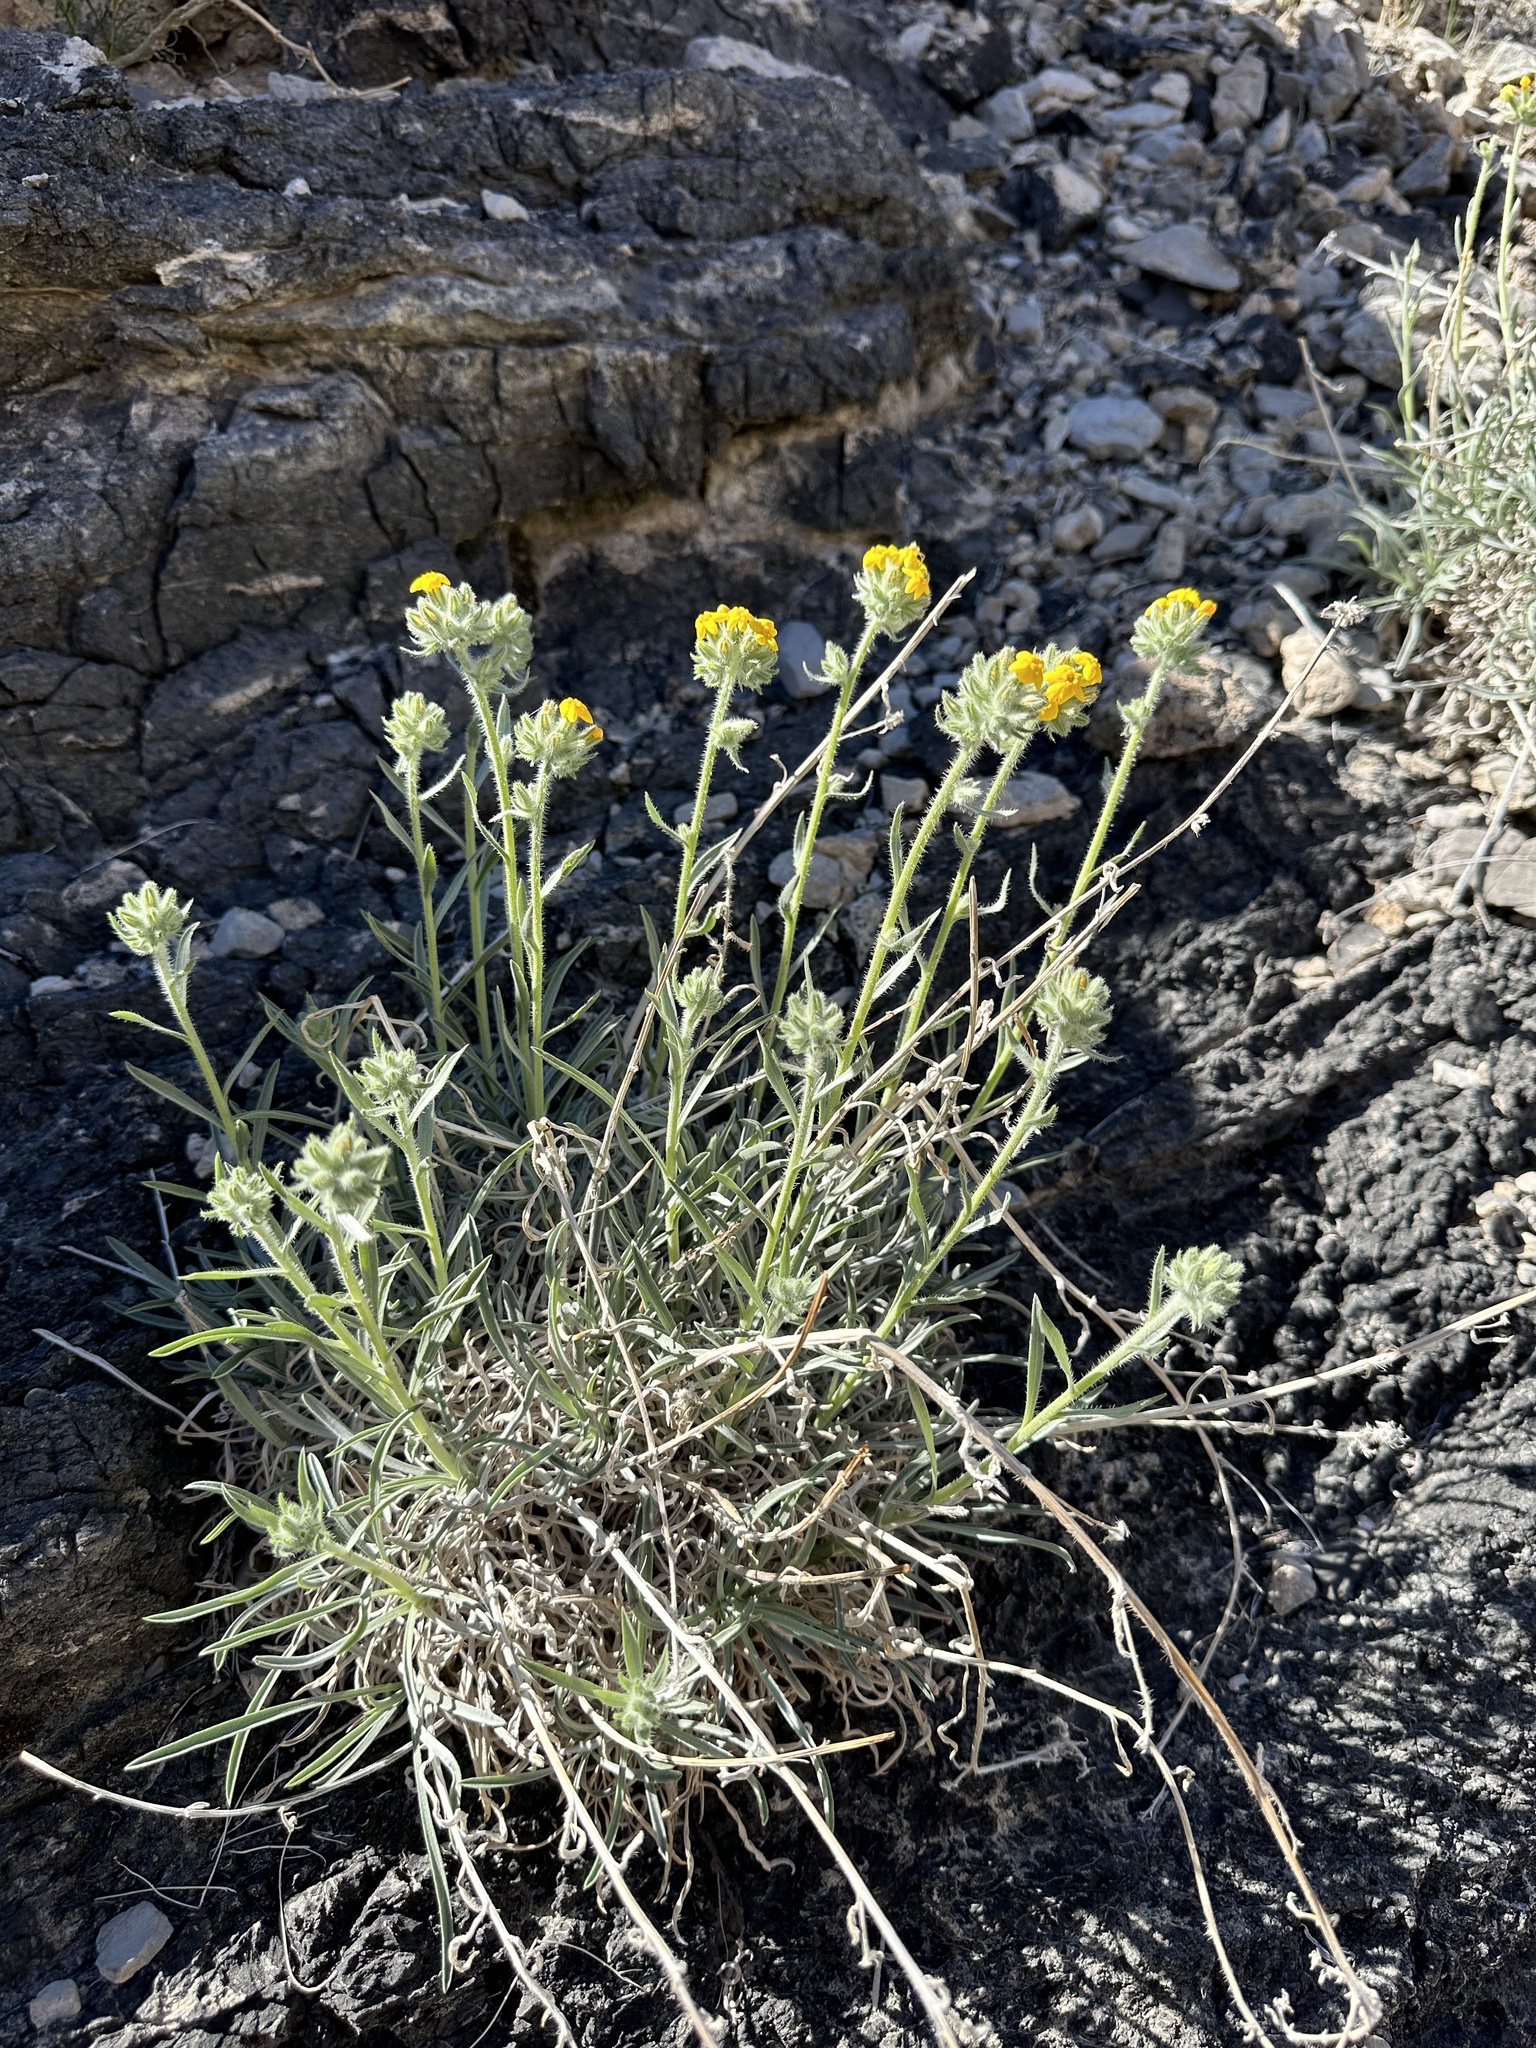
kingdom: Plantae
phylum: Tracheophyta
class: Magnoliopsida
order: Boraginales
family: Boraginaceae
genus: Oreocarya
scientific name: Oreocarya confertiflora
